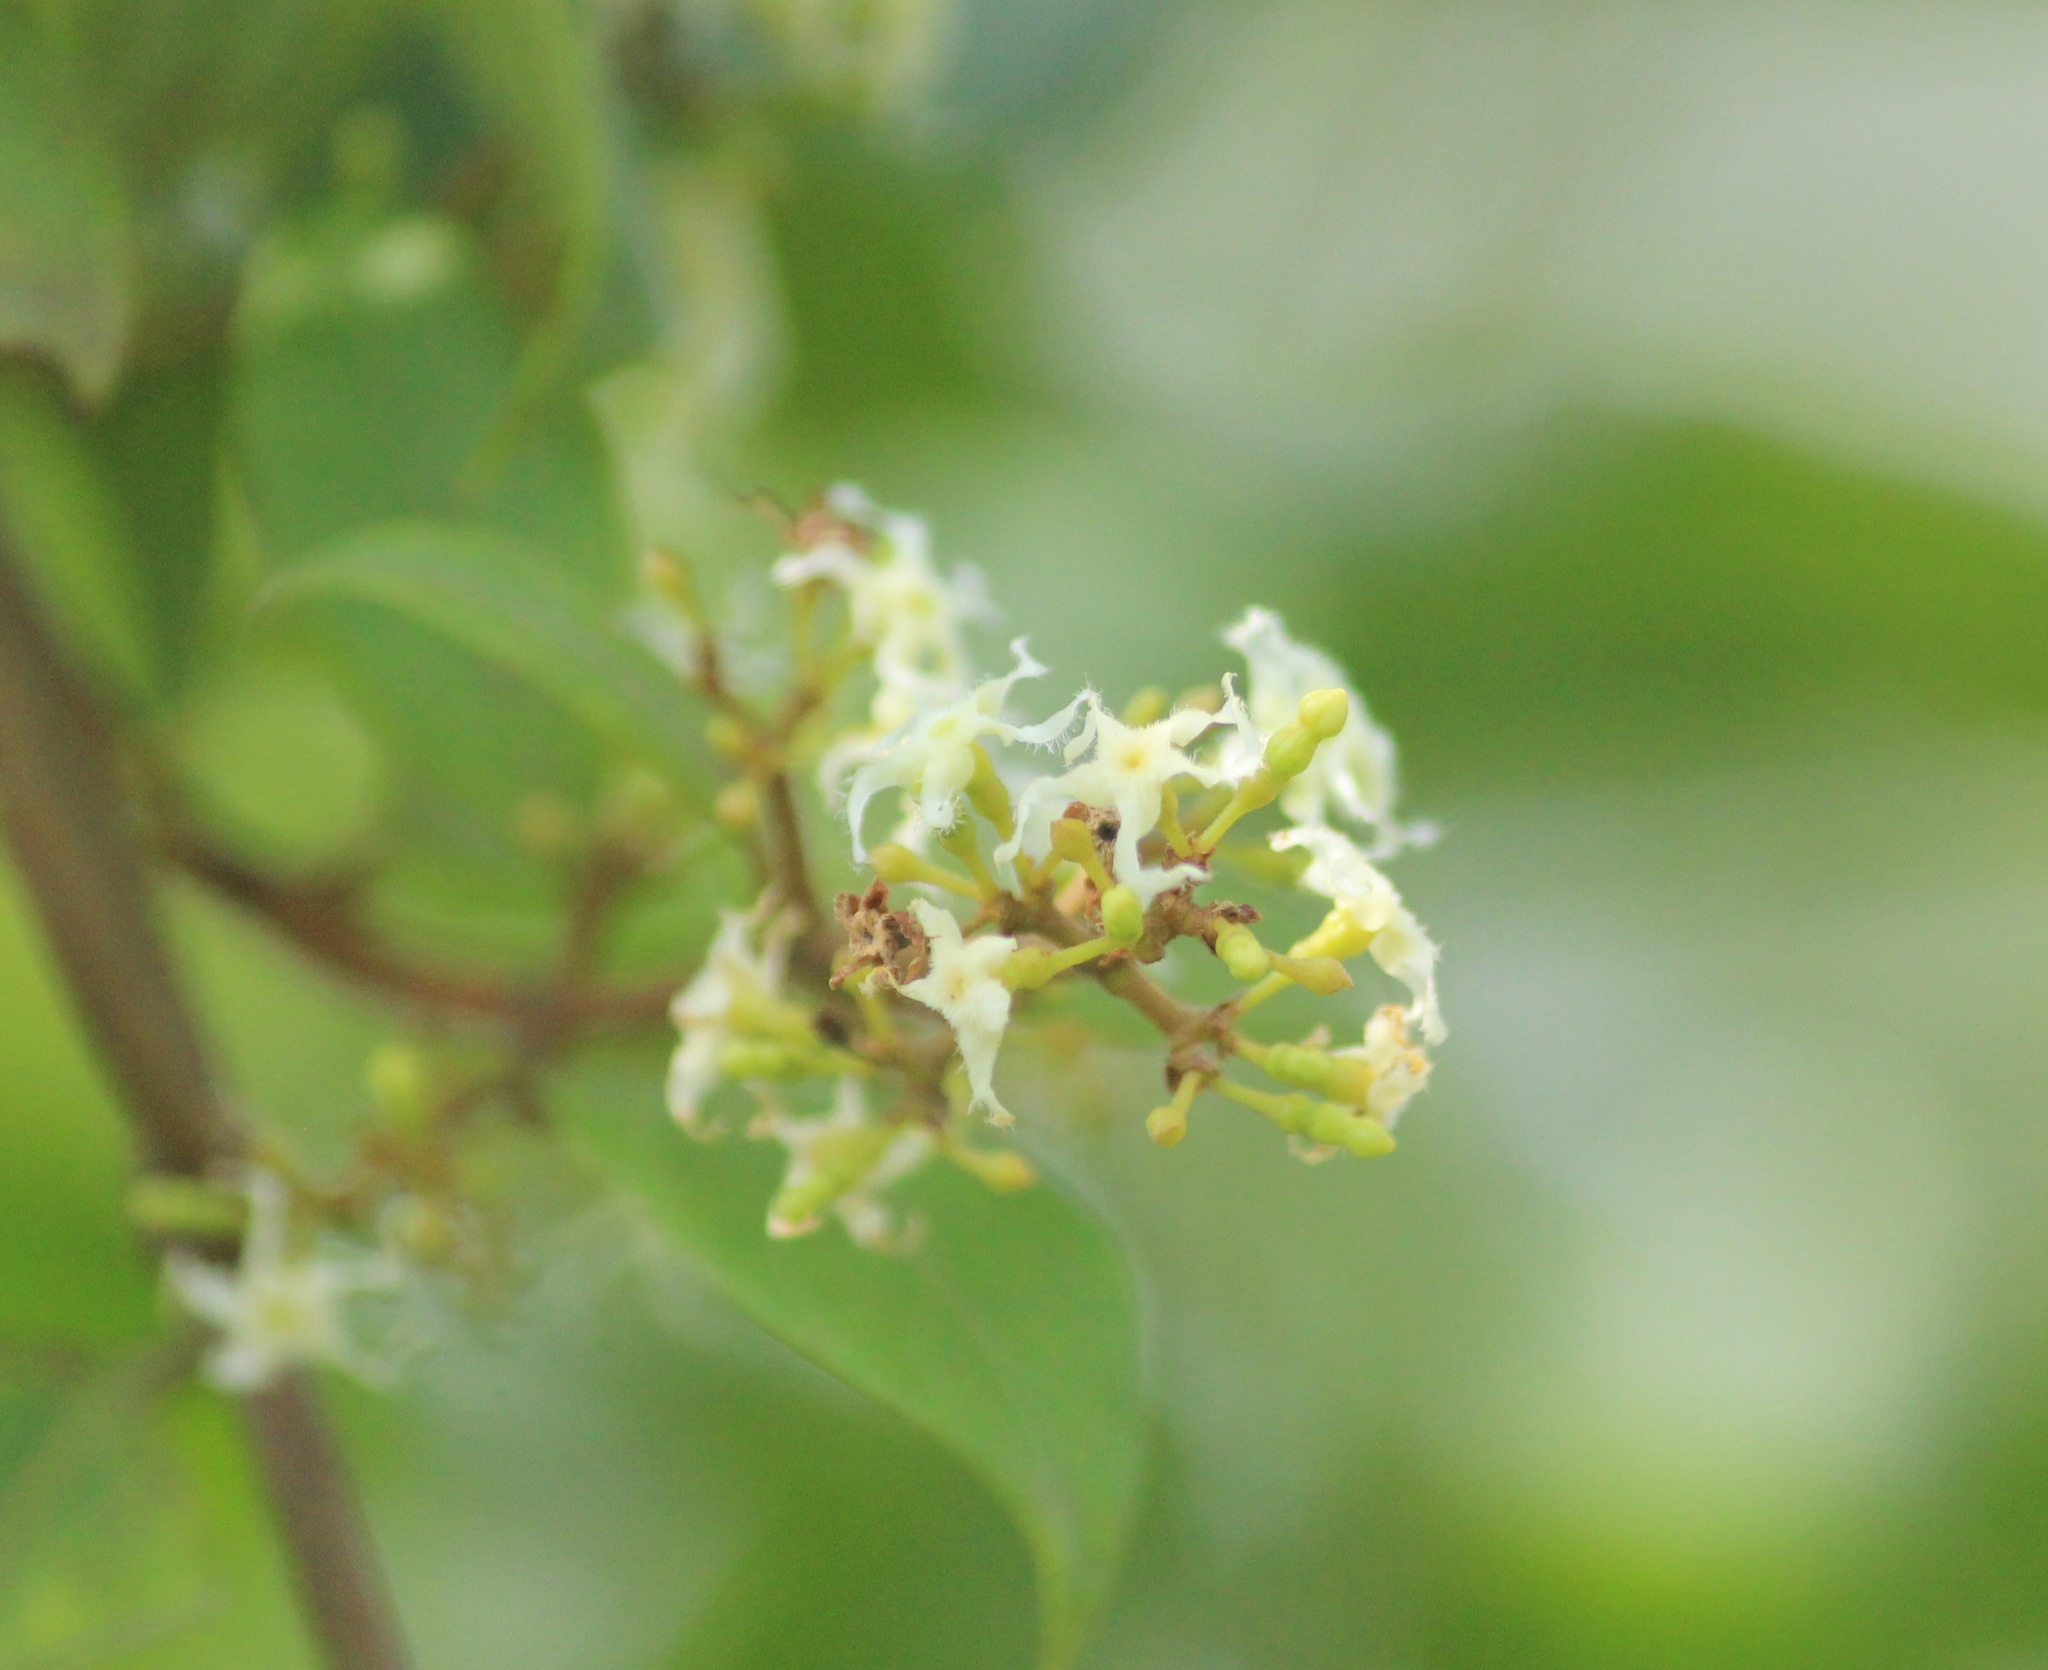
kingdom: Plantae
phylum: Tracheophyta
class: Magnoliopsida
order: Gentianales
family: Apocynaceae
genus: Ichnocarpus
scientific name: Ichnocarpus frutescens
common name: Ichnocarpus
